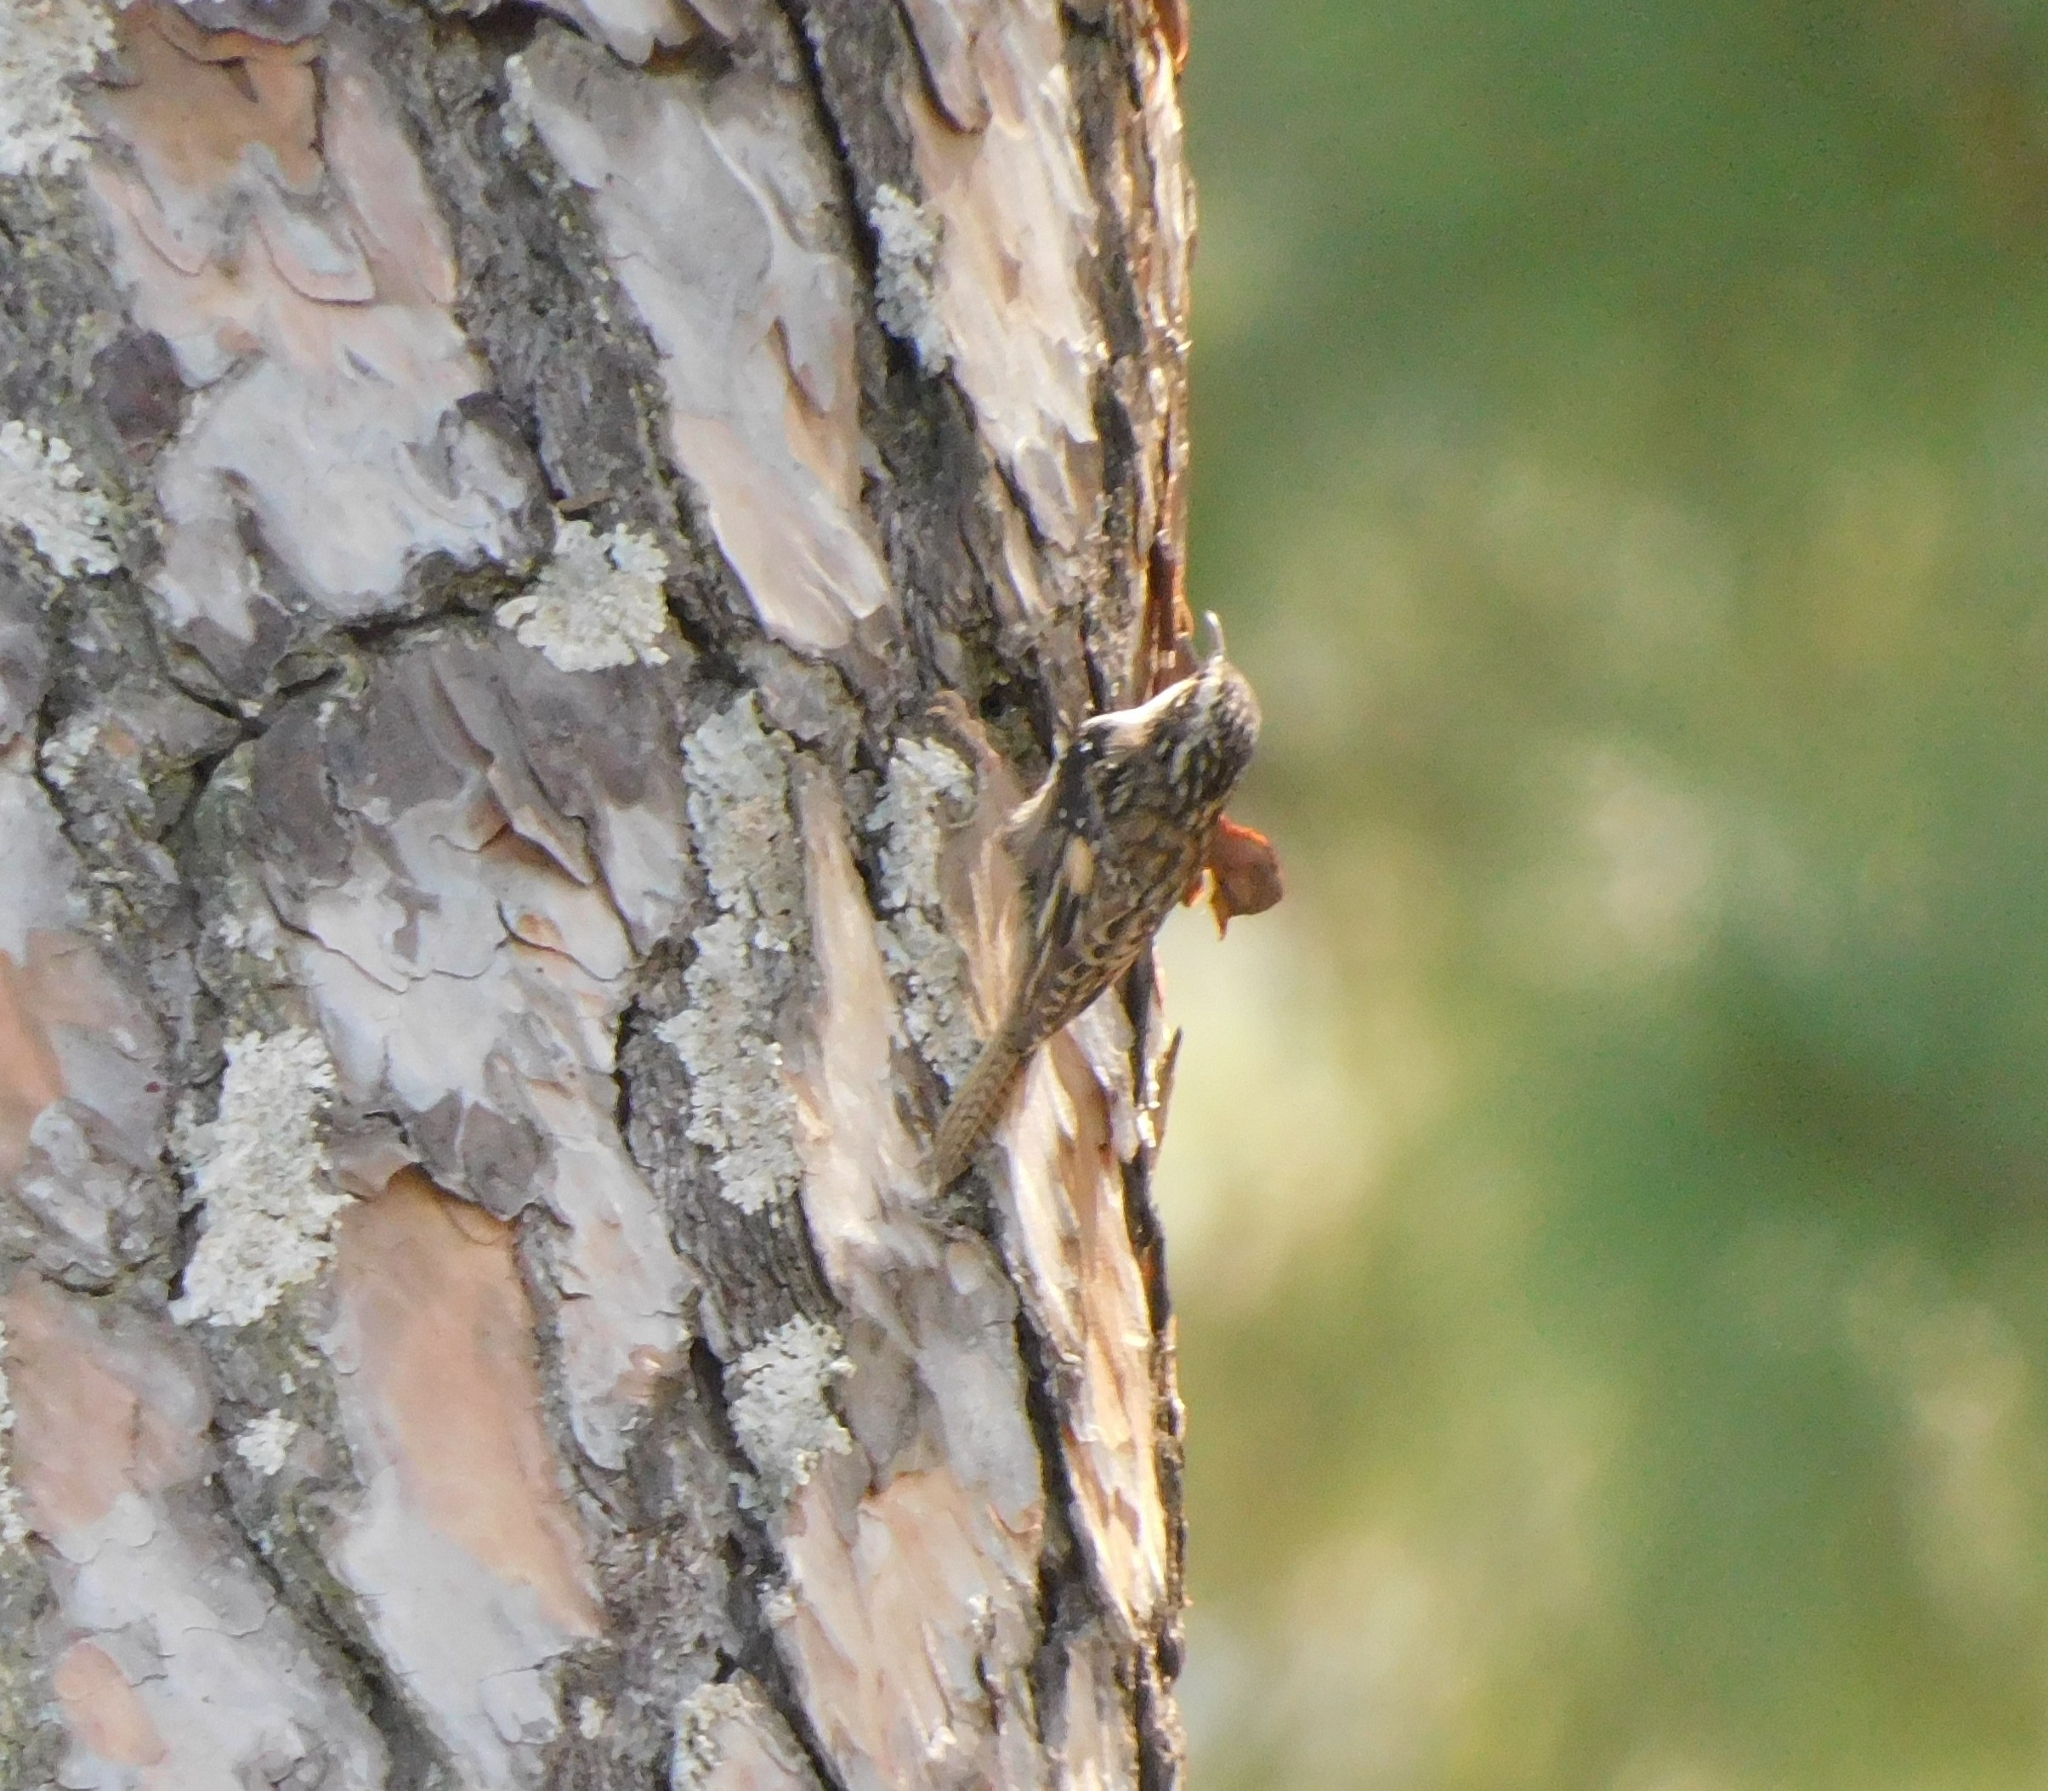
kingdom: Animalia
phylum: Chordata
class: Aves
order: Passeriformes
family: Certhiidae
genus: Certhia
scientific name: Certhia himalayana
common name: Bar-tailed treecreeper
